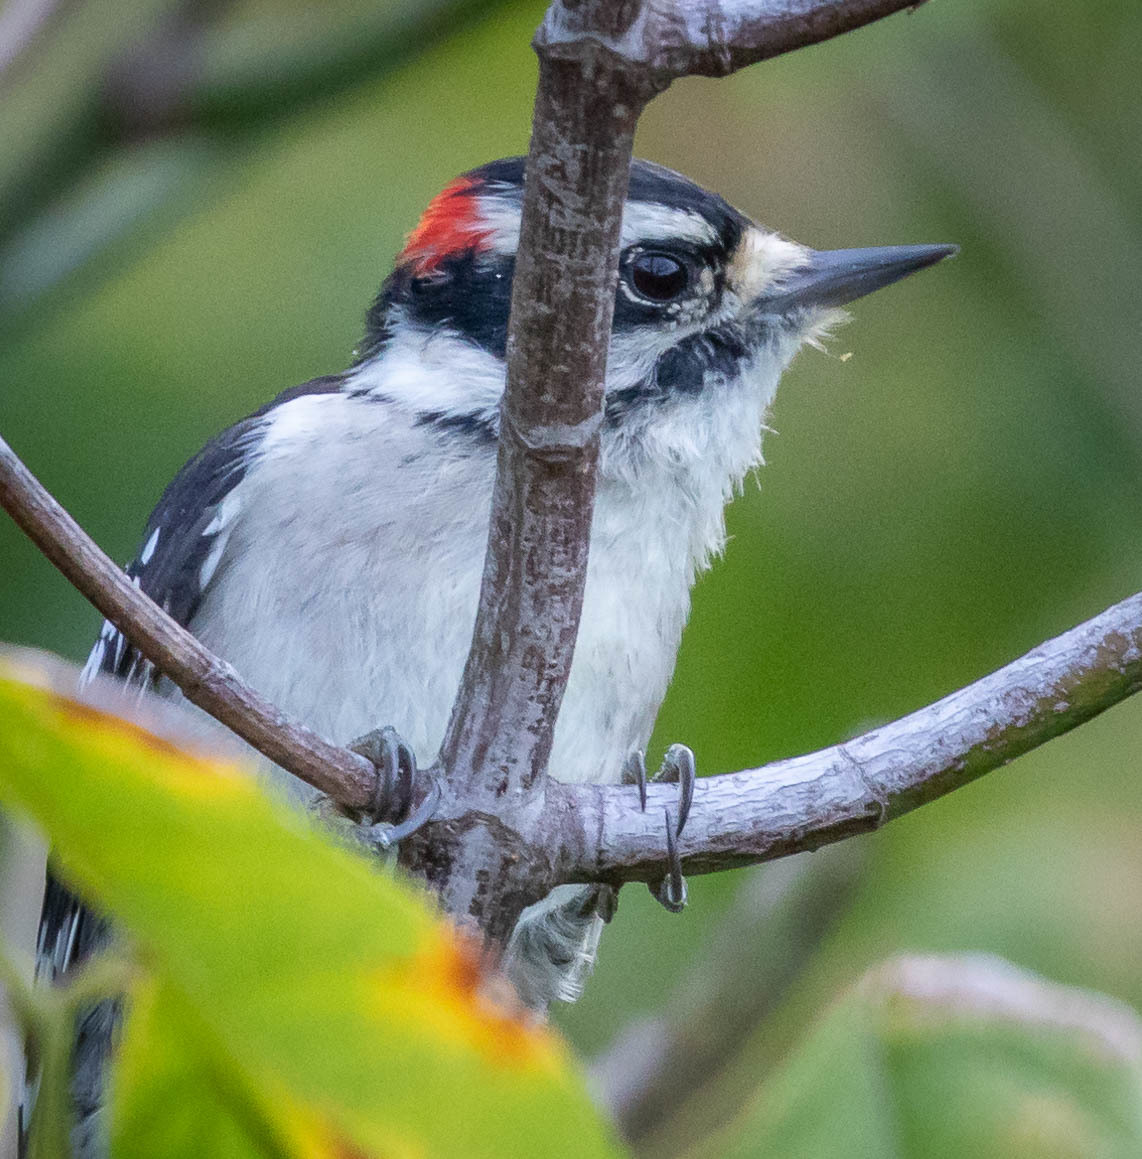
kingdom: Animalia
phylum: Chordata
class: Aves
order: Piciformes
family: Picidae
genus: Dryobates
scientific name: Dryobates pubescens
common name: Downy woodpecker
